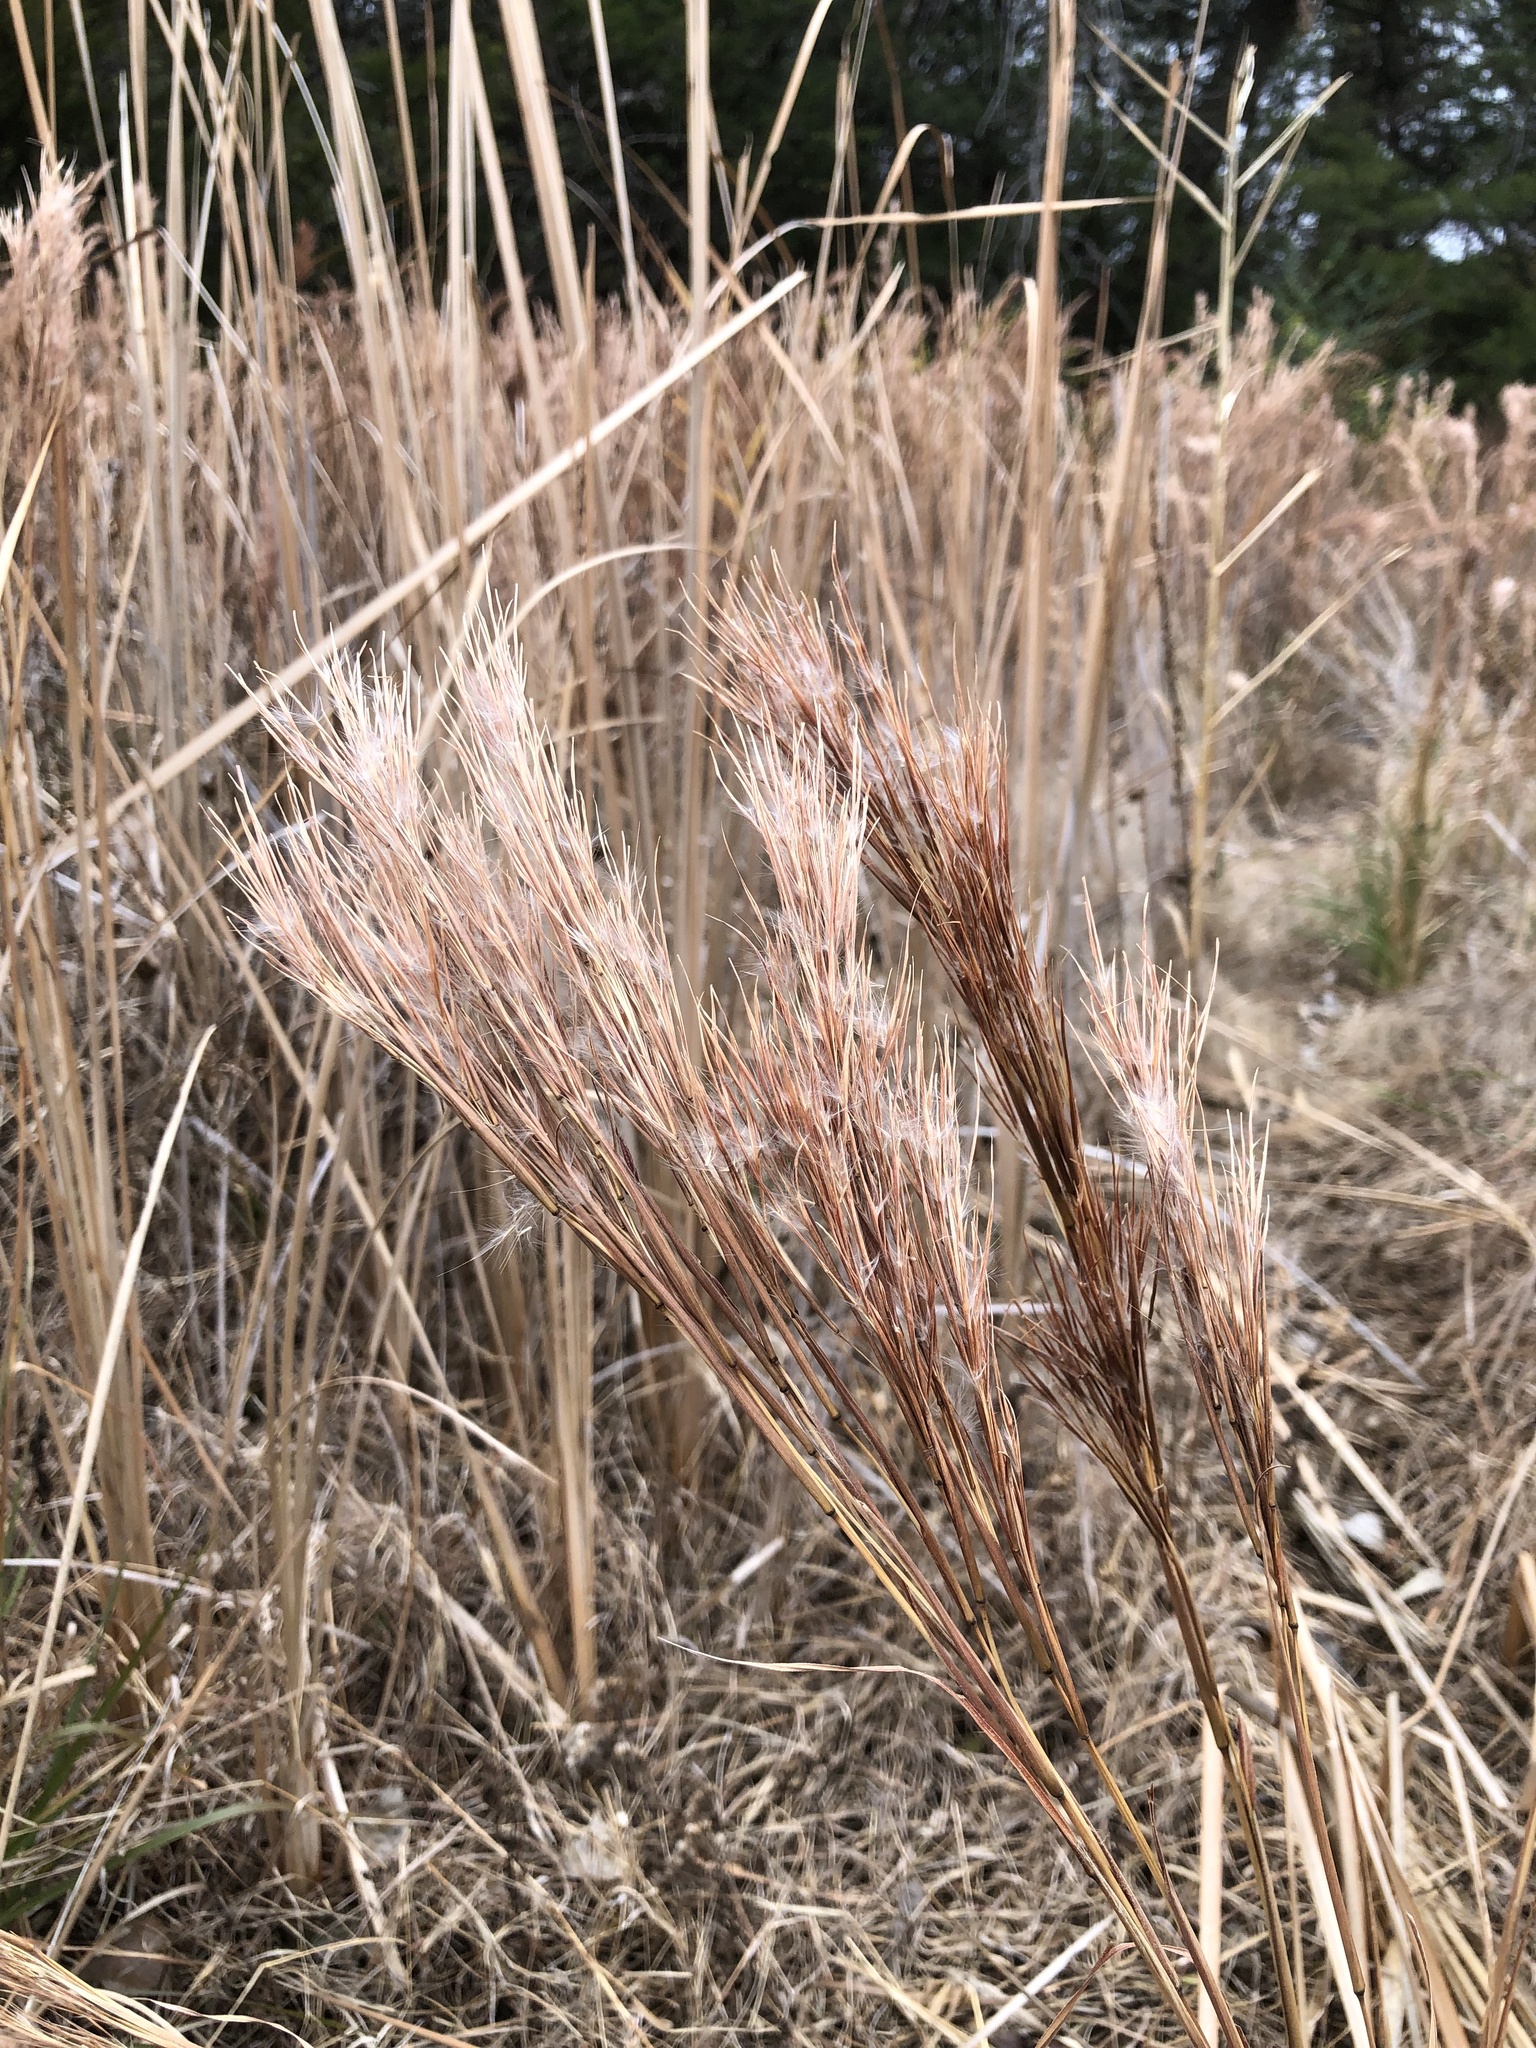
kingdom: Plantae
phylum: Tracheophyta
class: Liliopsida
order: Poales
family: Poaceae
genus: Andropogon
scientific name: Andropogon tenuispatheus
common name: Bushy bluestem
